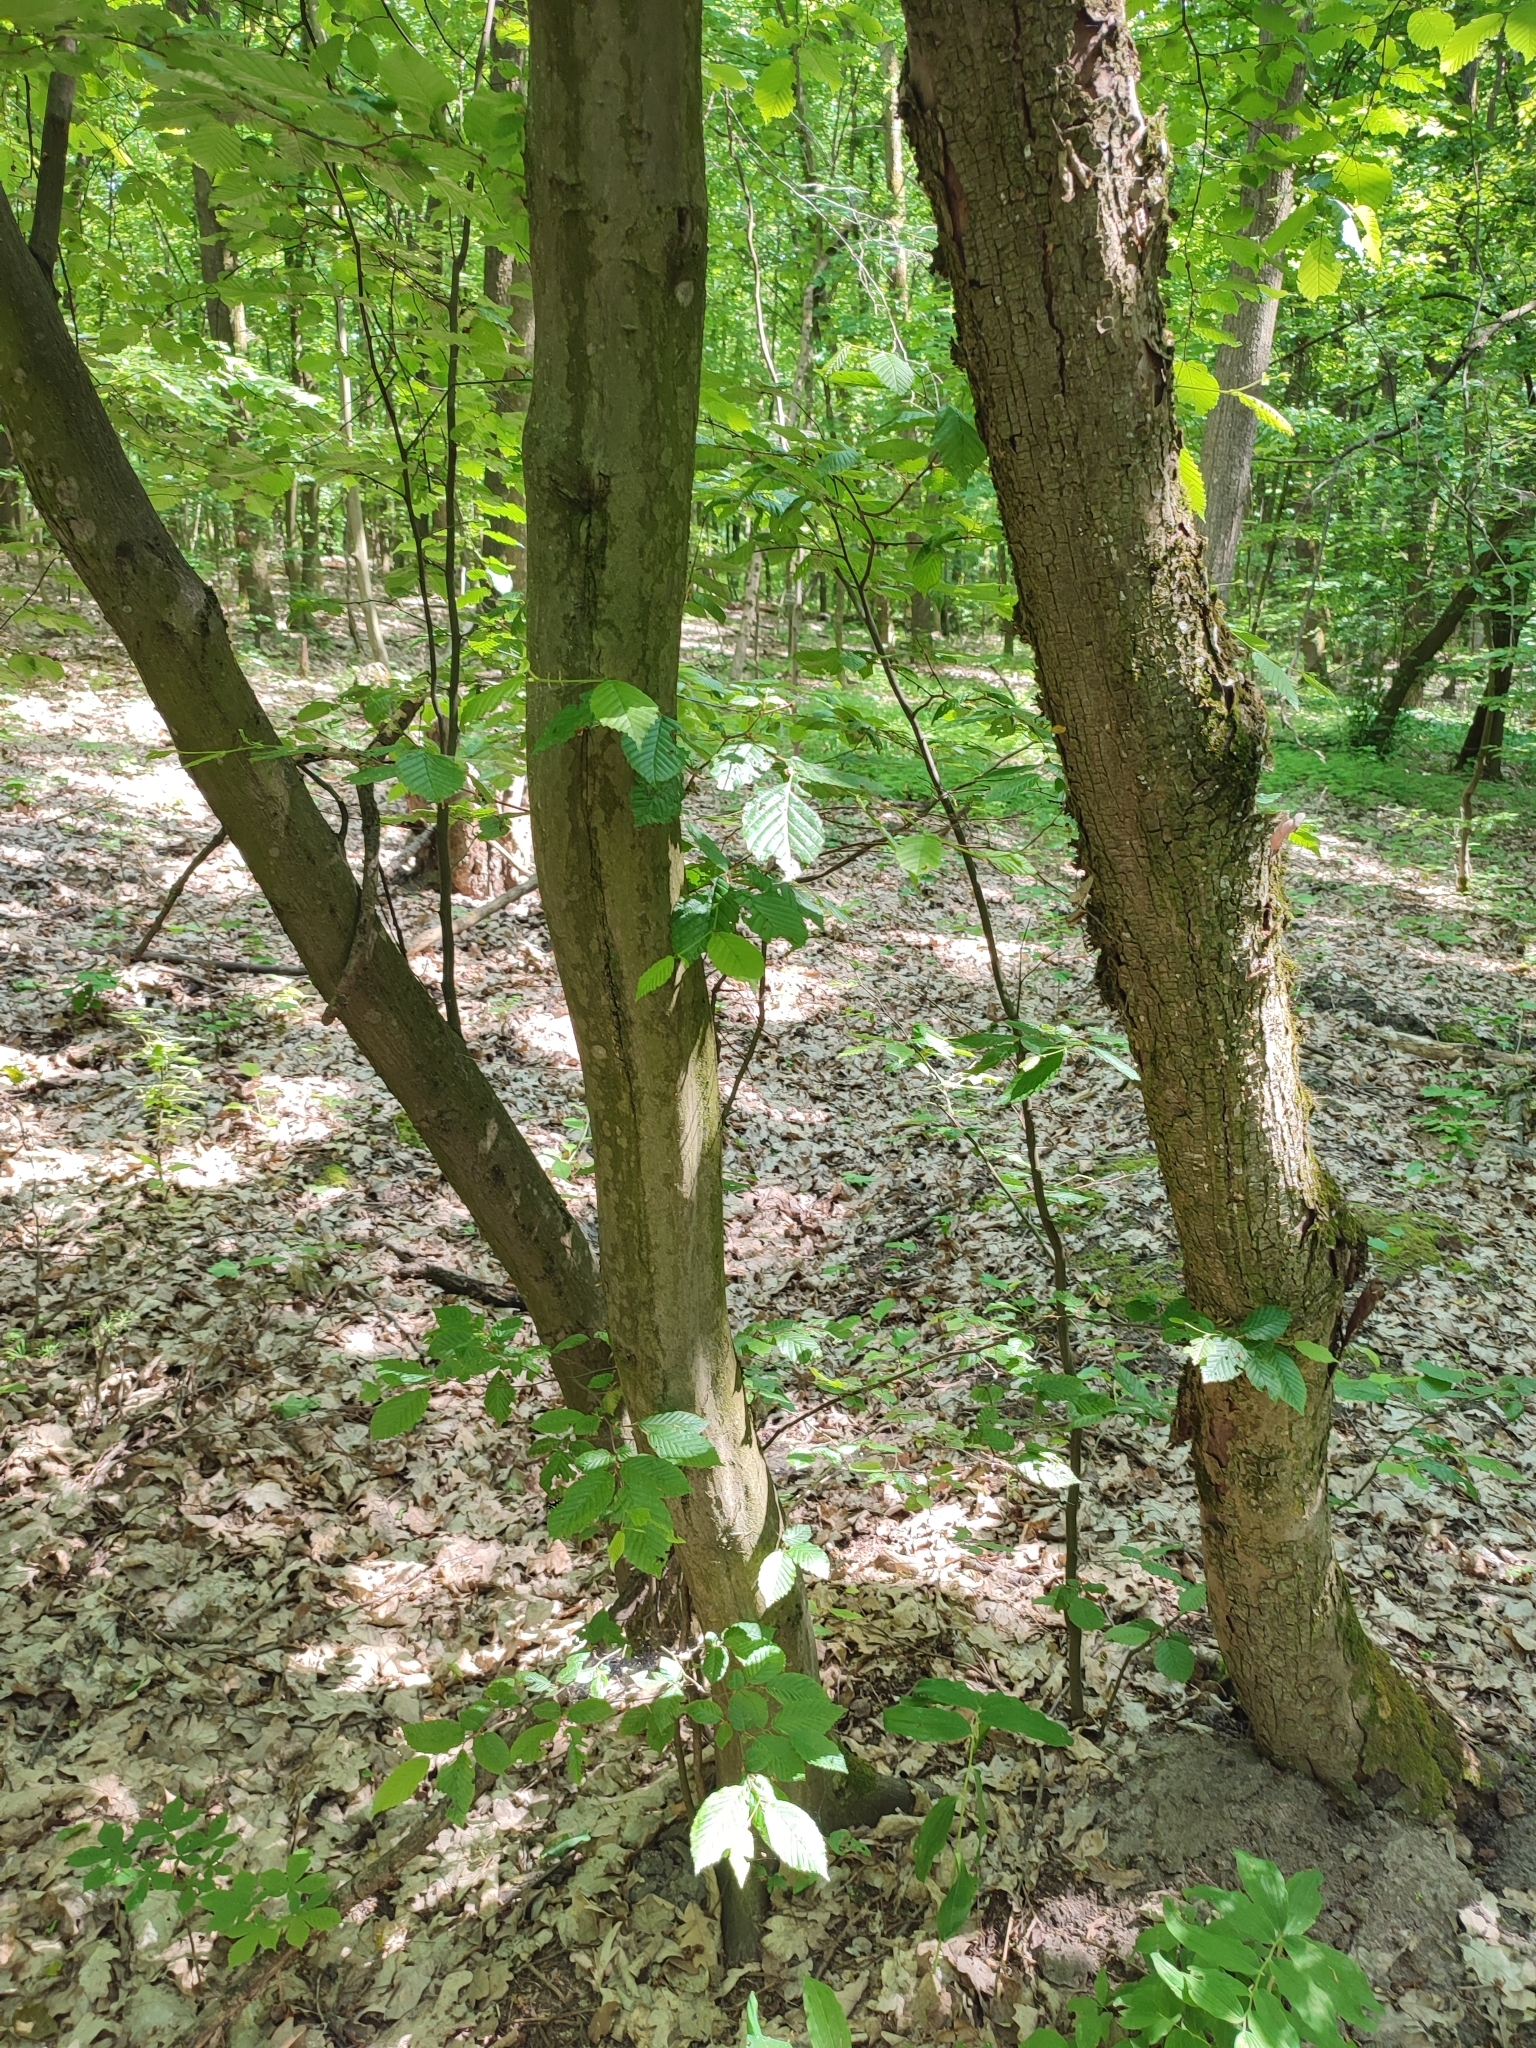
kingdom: Plantae
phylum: Tracheophyta
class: Magnoliopsida
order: Fagales
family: Betulaceae
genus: Carpinus
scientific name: Carpinus betulus
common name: Hornbeam
